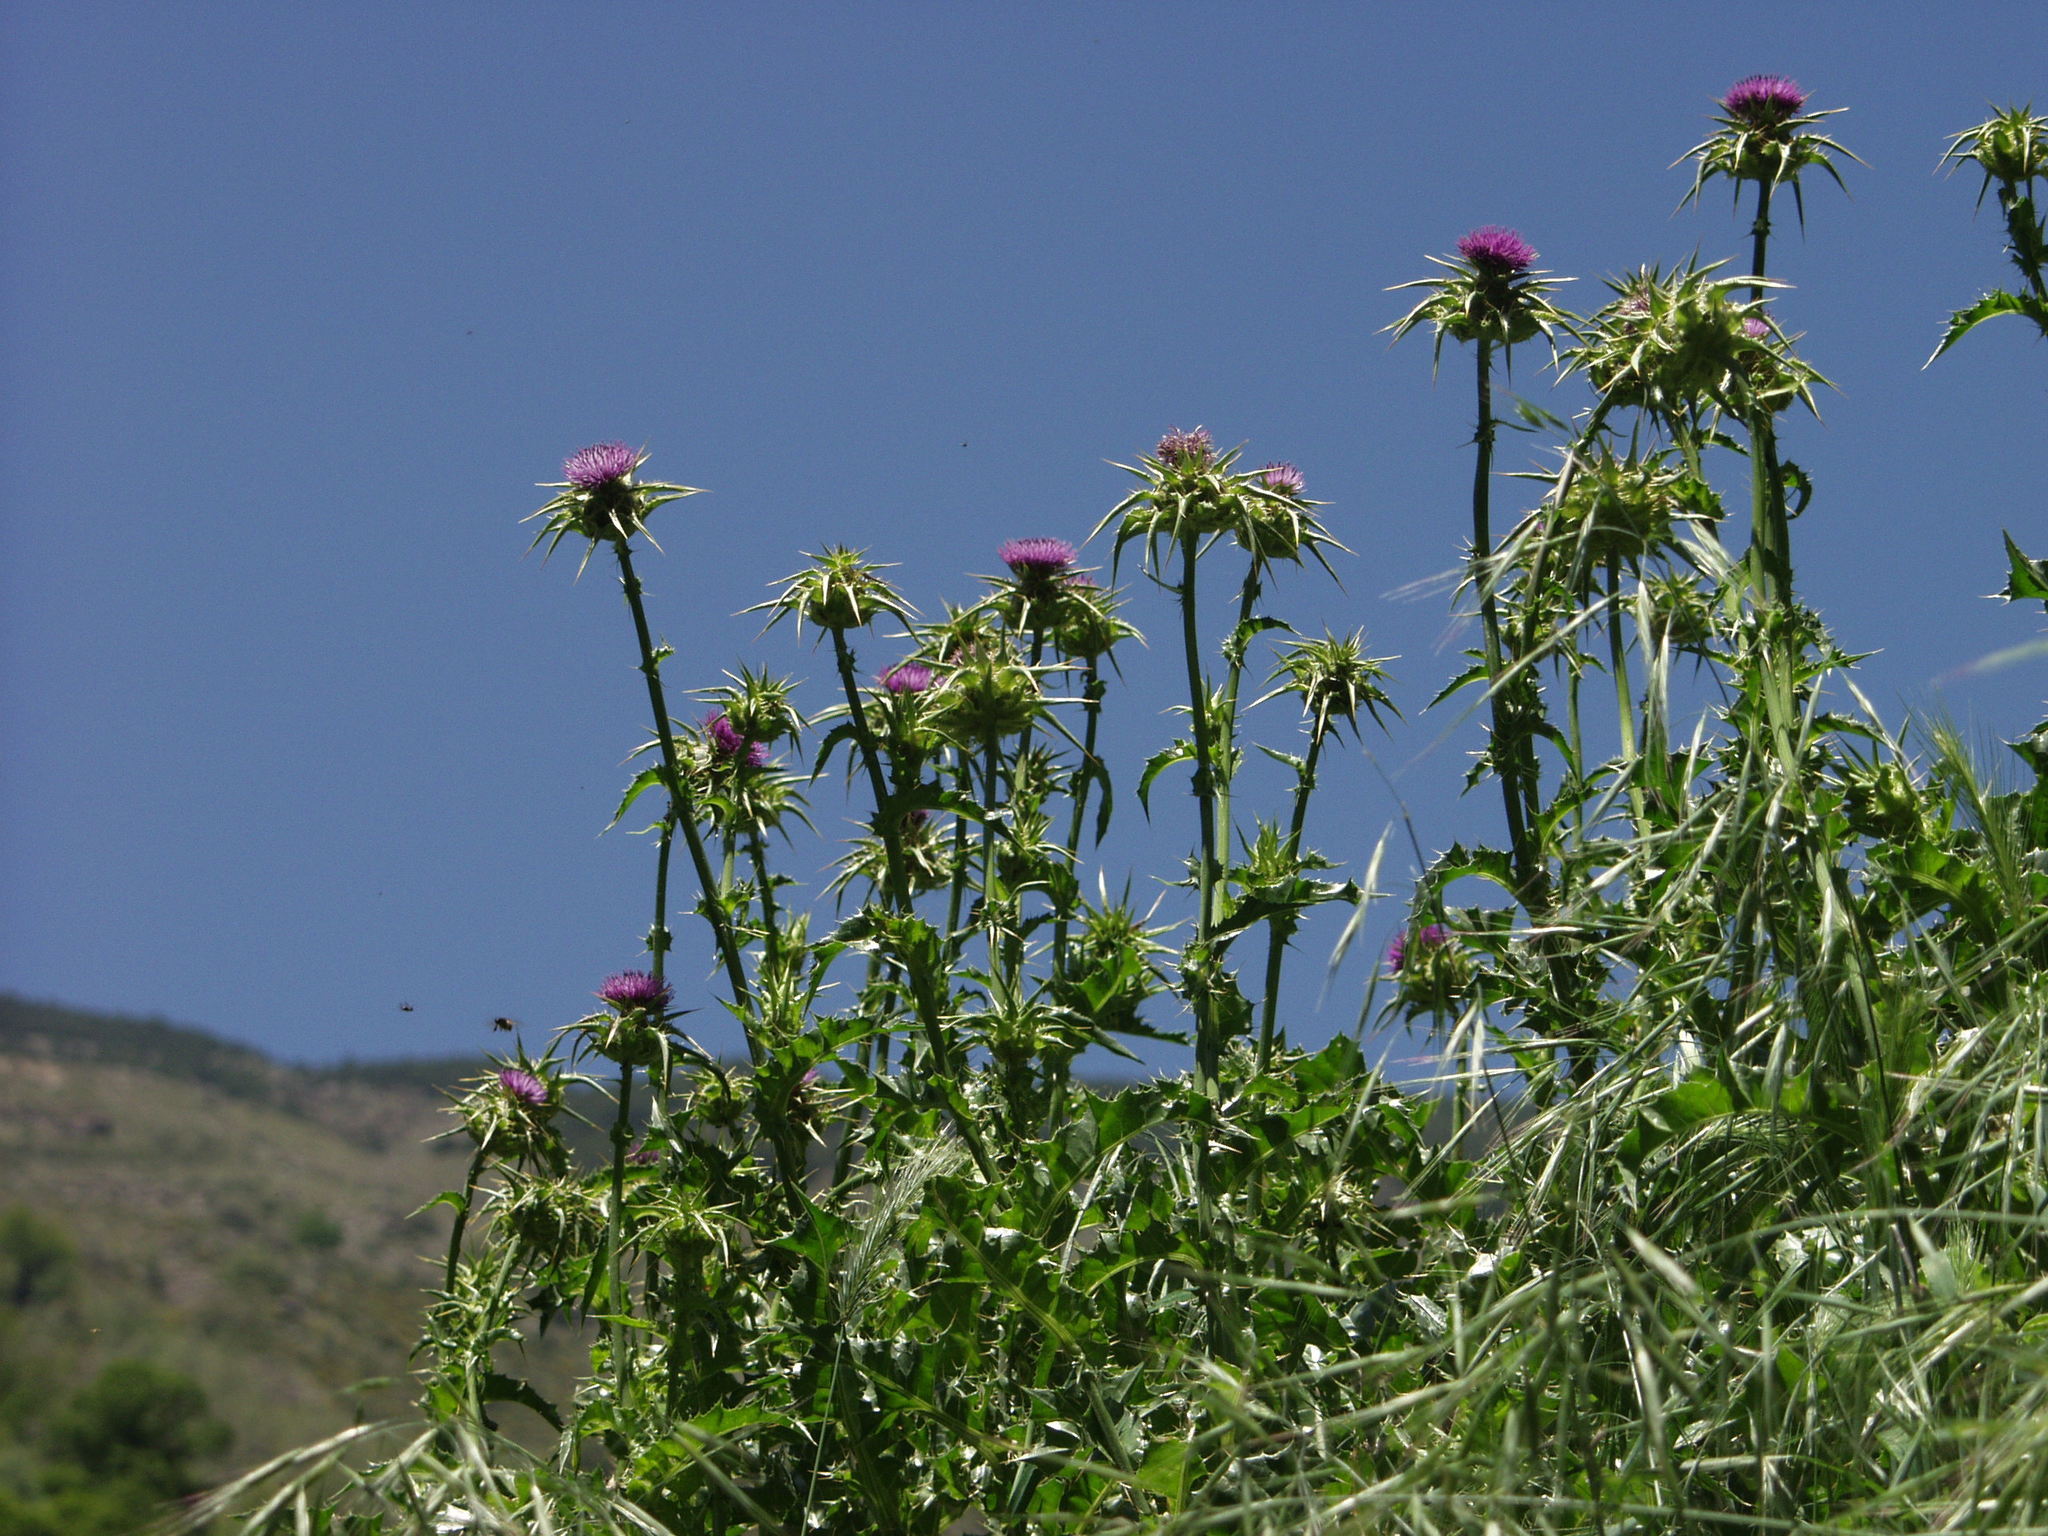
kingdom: Plantae
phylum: Tracheophyta
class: Magnoliopsida
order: Asterales
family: Asteraceae
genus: Silybum
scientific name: Silybum marianum
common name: Milk thistle
